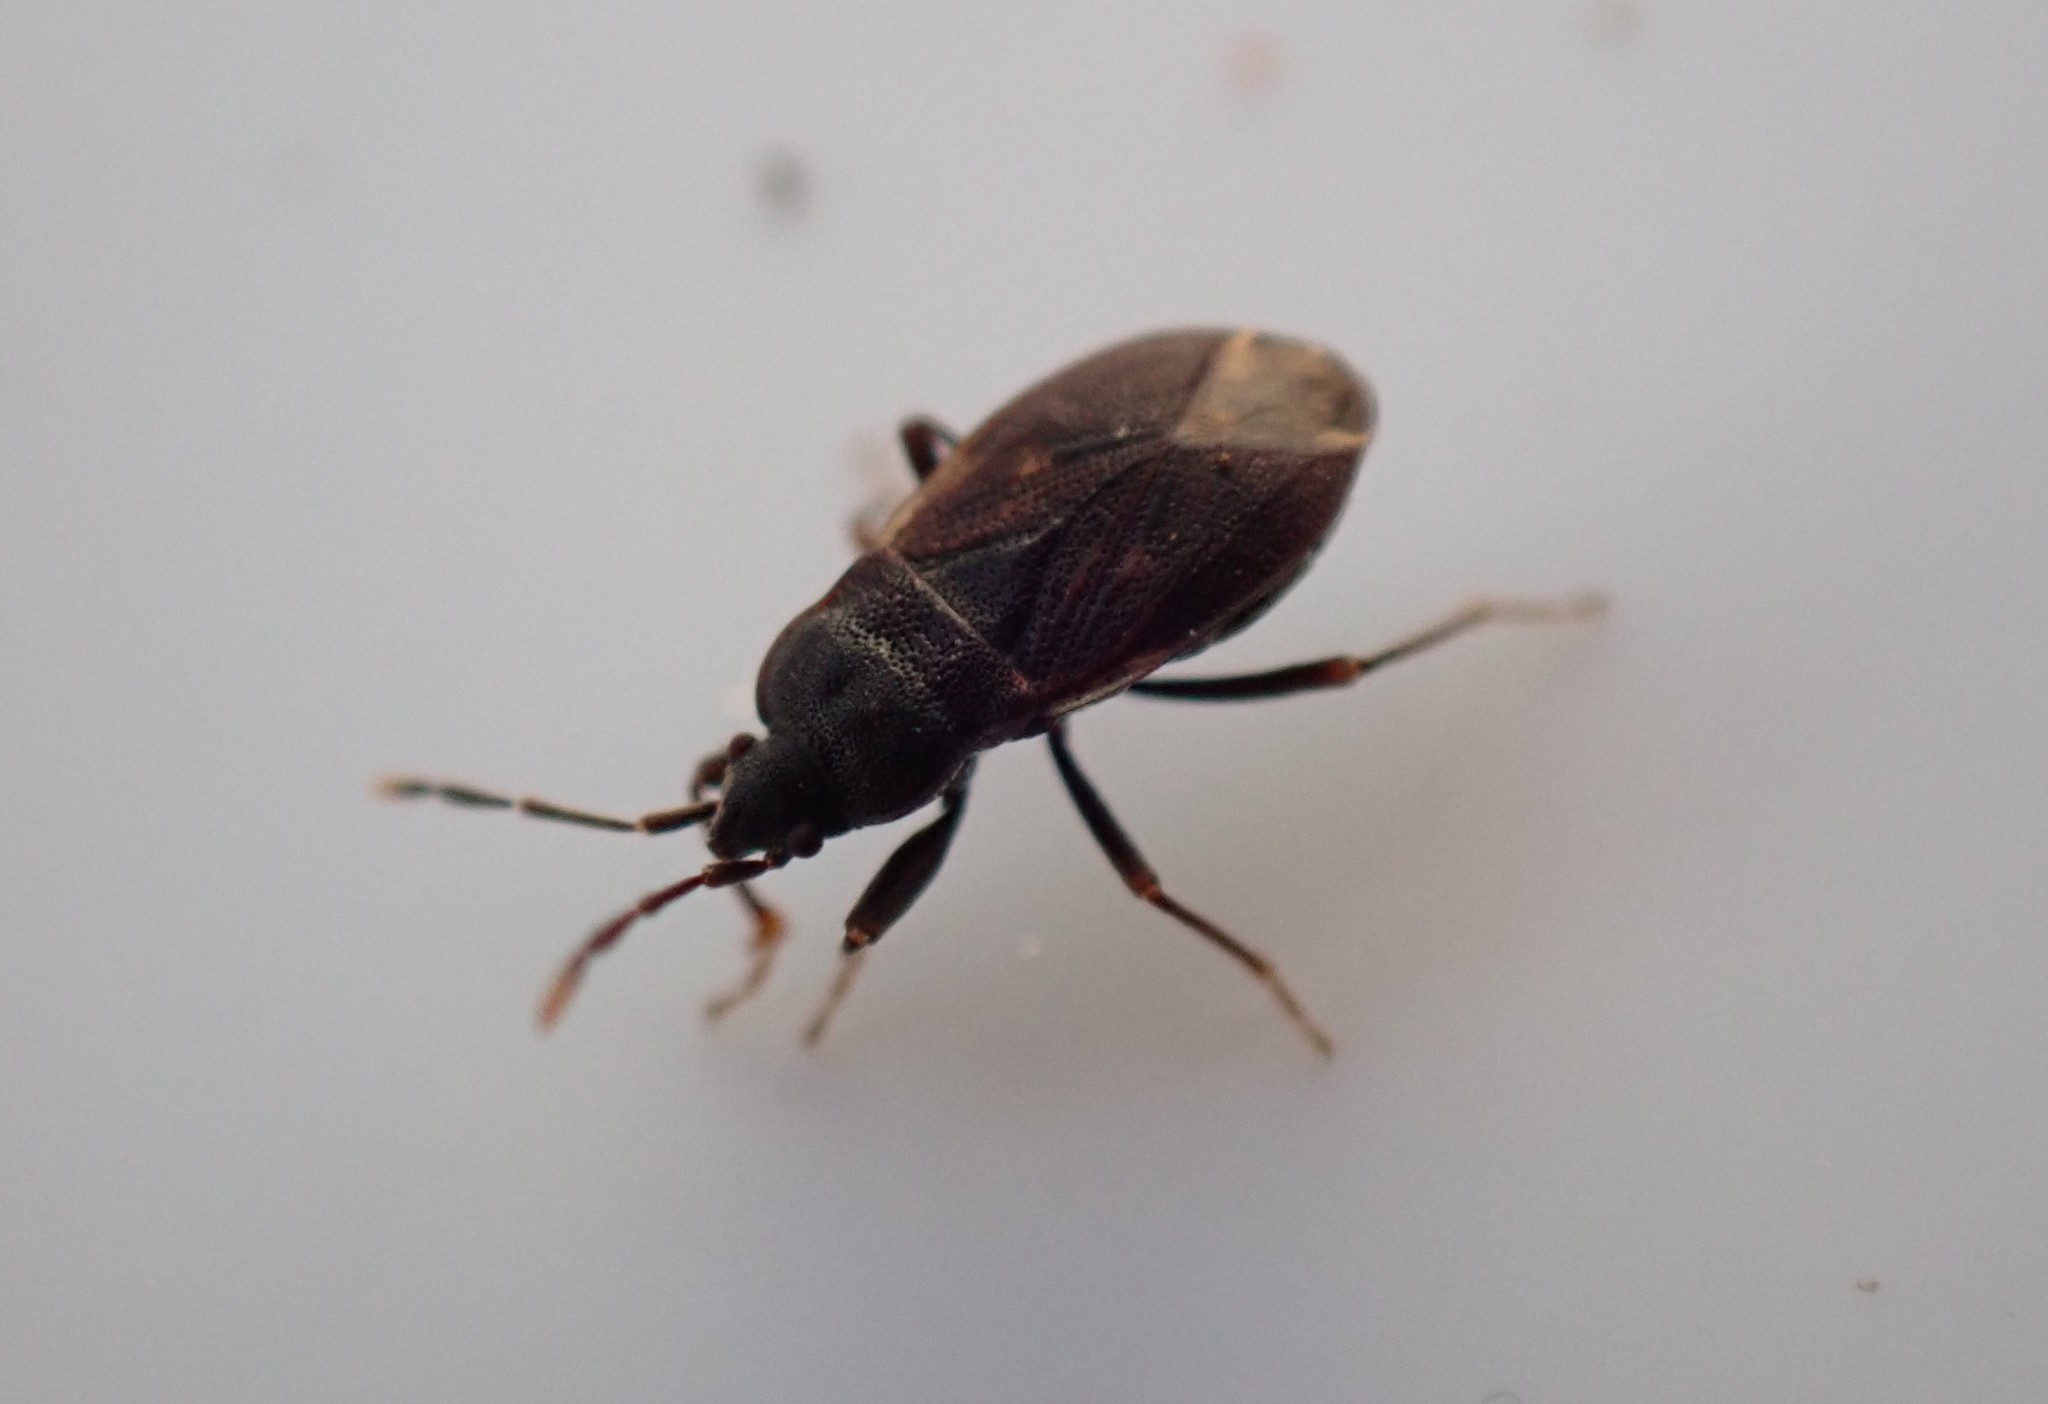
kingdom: Animalia
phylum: Arthropoda
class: Insecta
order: Hemiptera
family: Rhyparochromidae
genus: Drymus
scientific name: Drymus brunneus
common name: Seed bug
